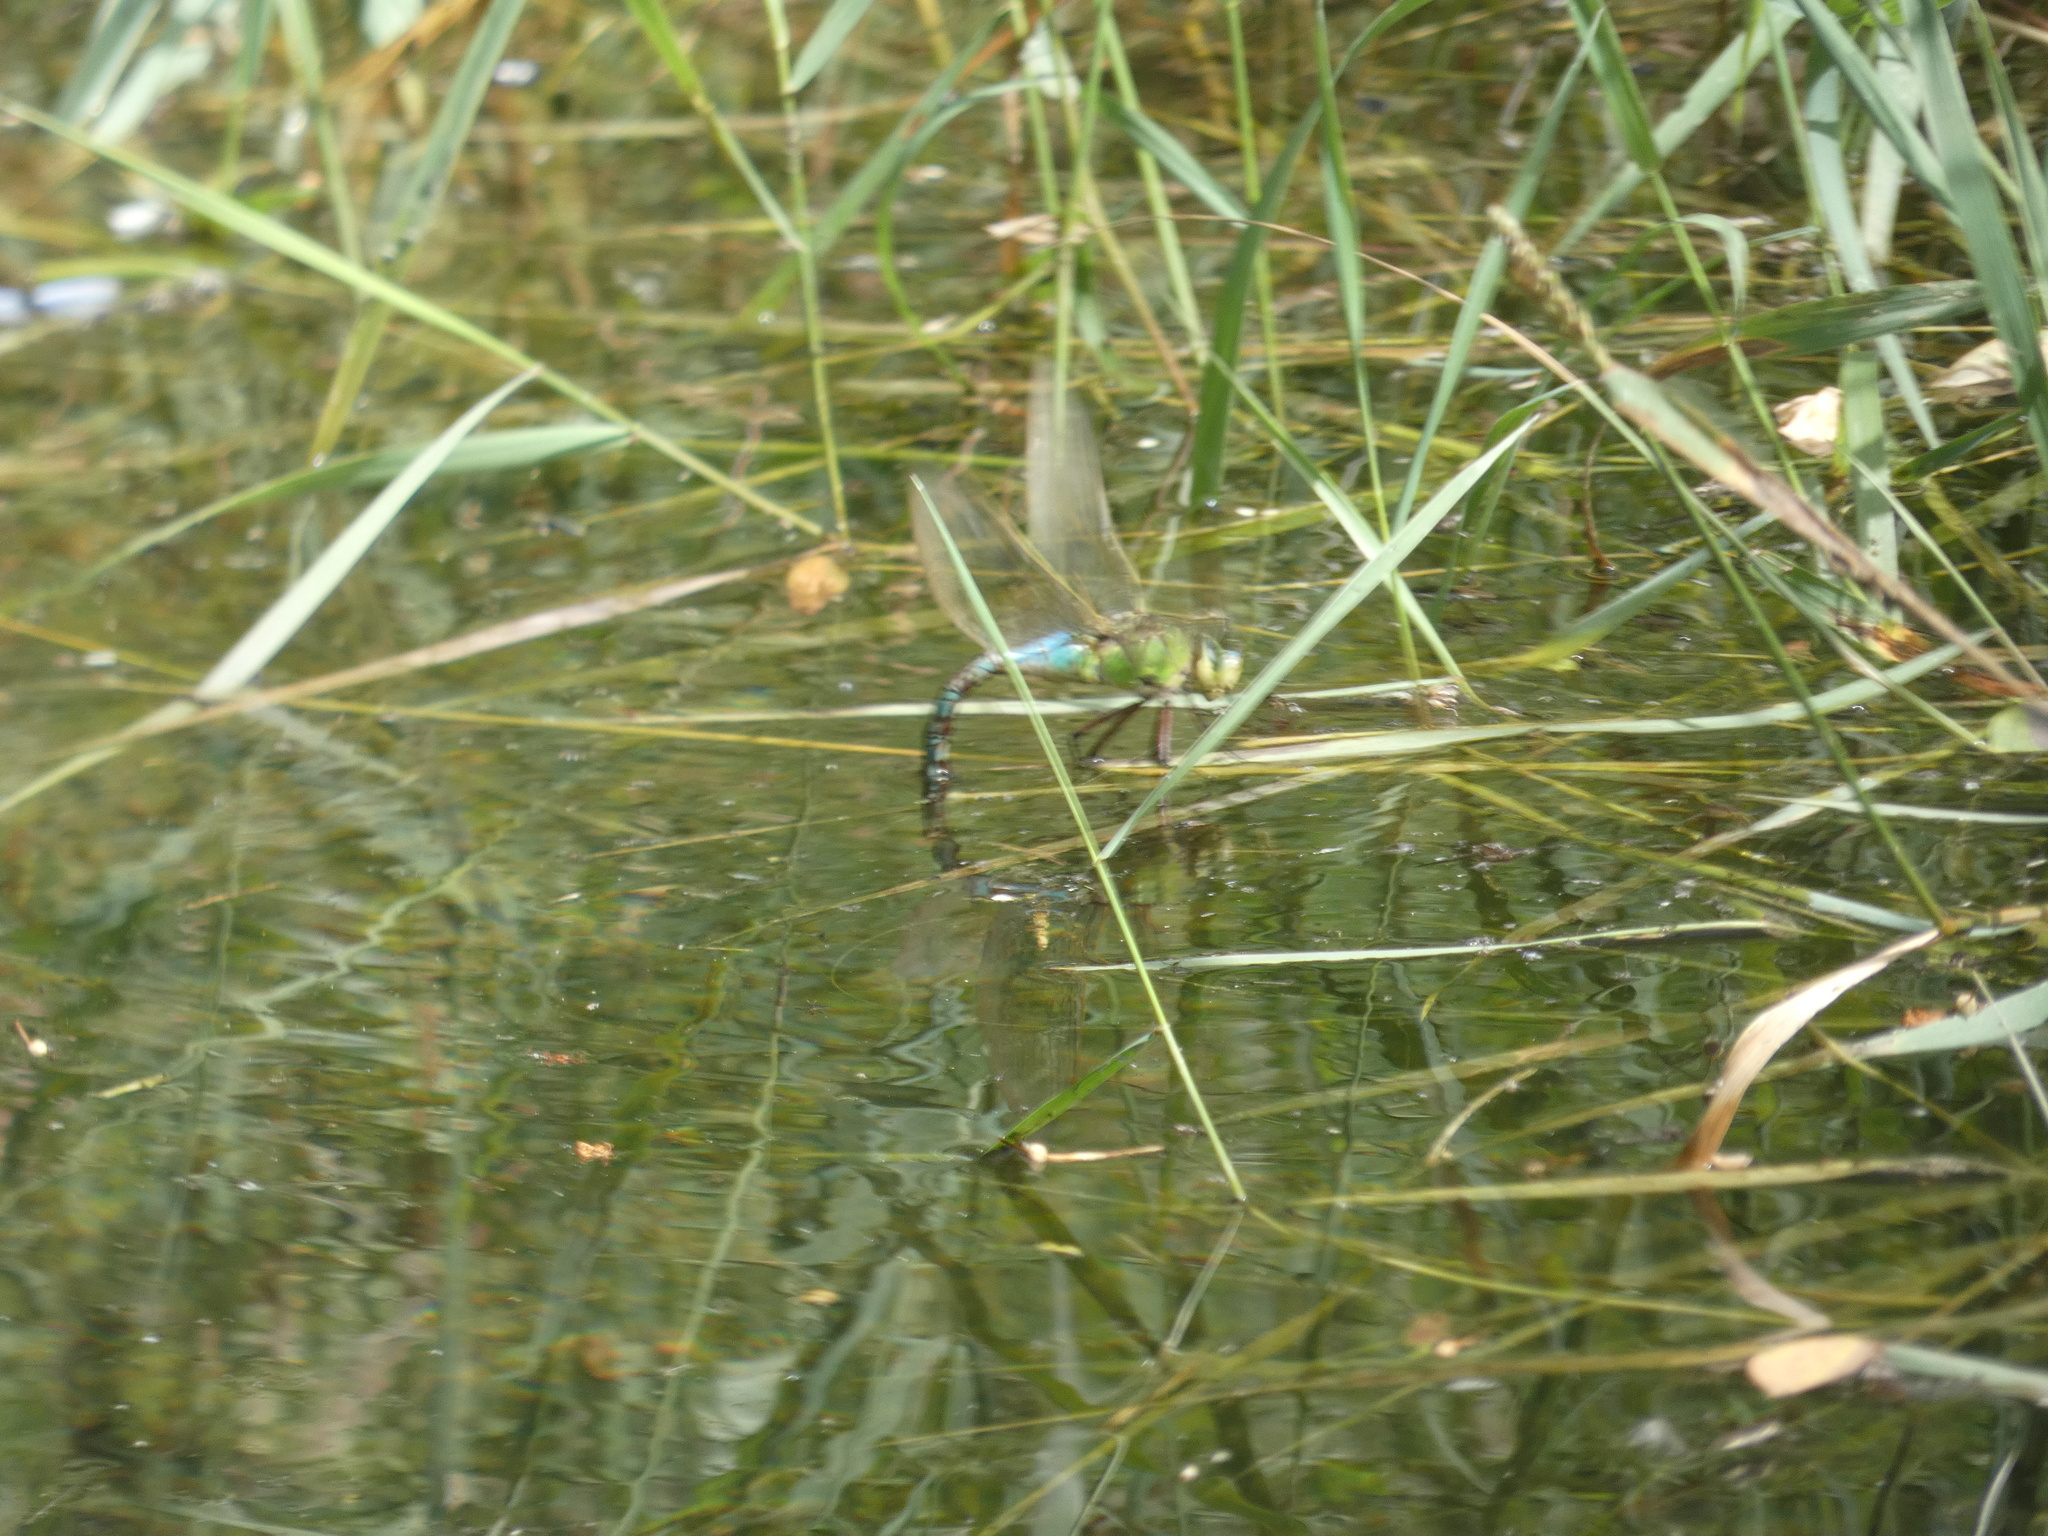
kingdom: Animalia
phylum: Arthropoda
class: Insecta
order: Odonata
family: Aeshnidae
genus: Anax
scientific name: Anax imperator
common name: Emperor dragonfly
